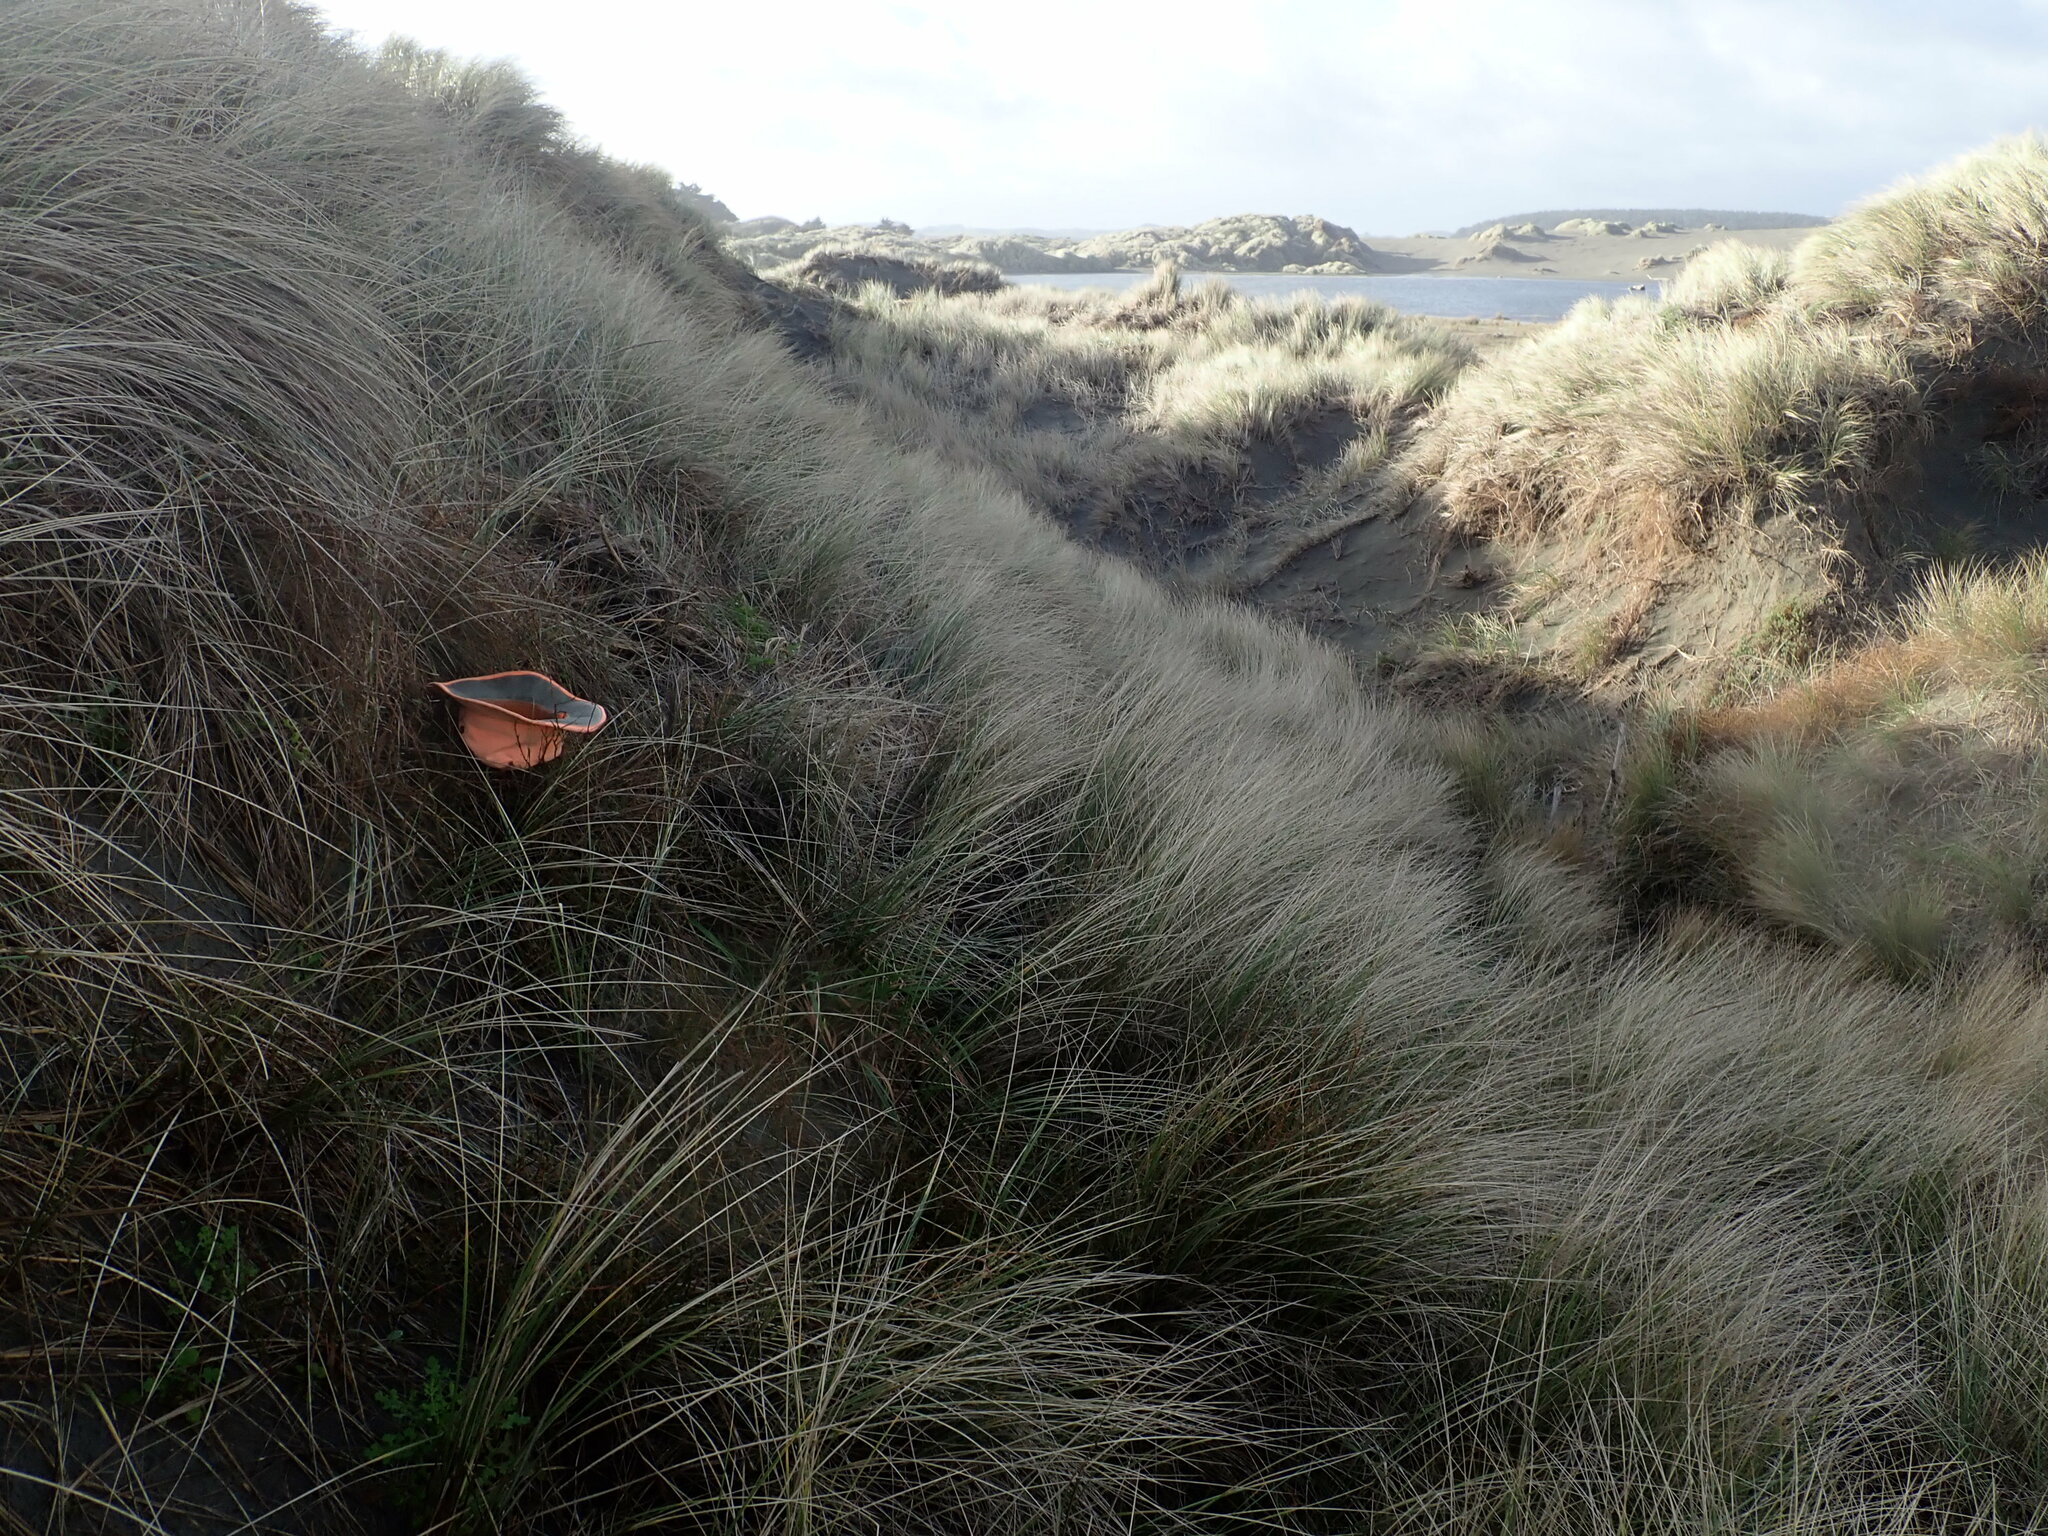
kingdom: Plantae
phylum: Tracheophyta
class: Magnoliopsida
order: Gentianales
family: Rubiaceae
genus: Coprosma
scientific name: Coprosma acerosa
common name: Sand coprosma
